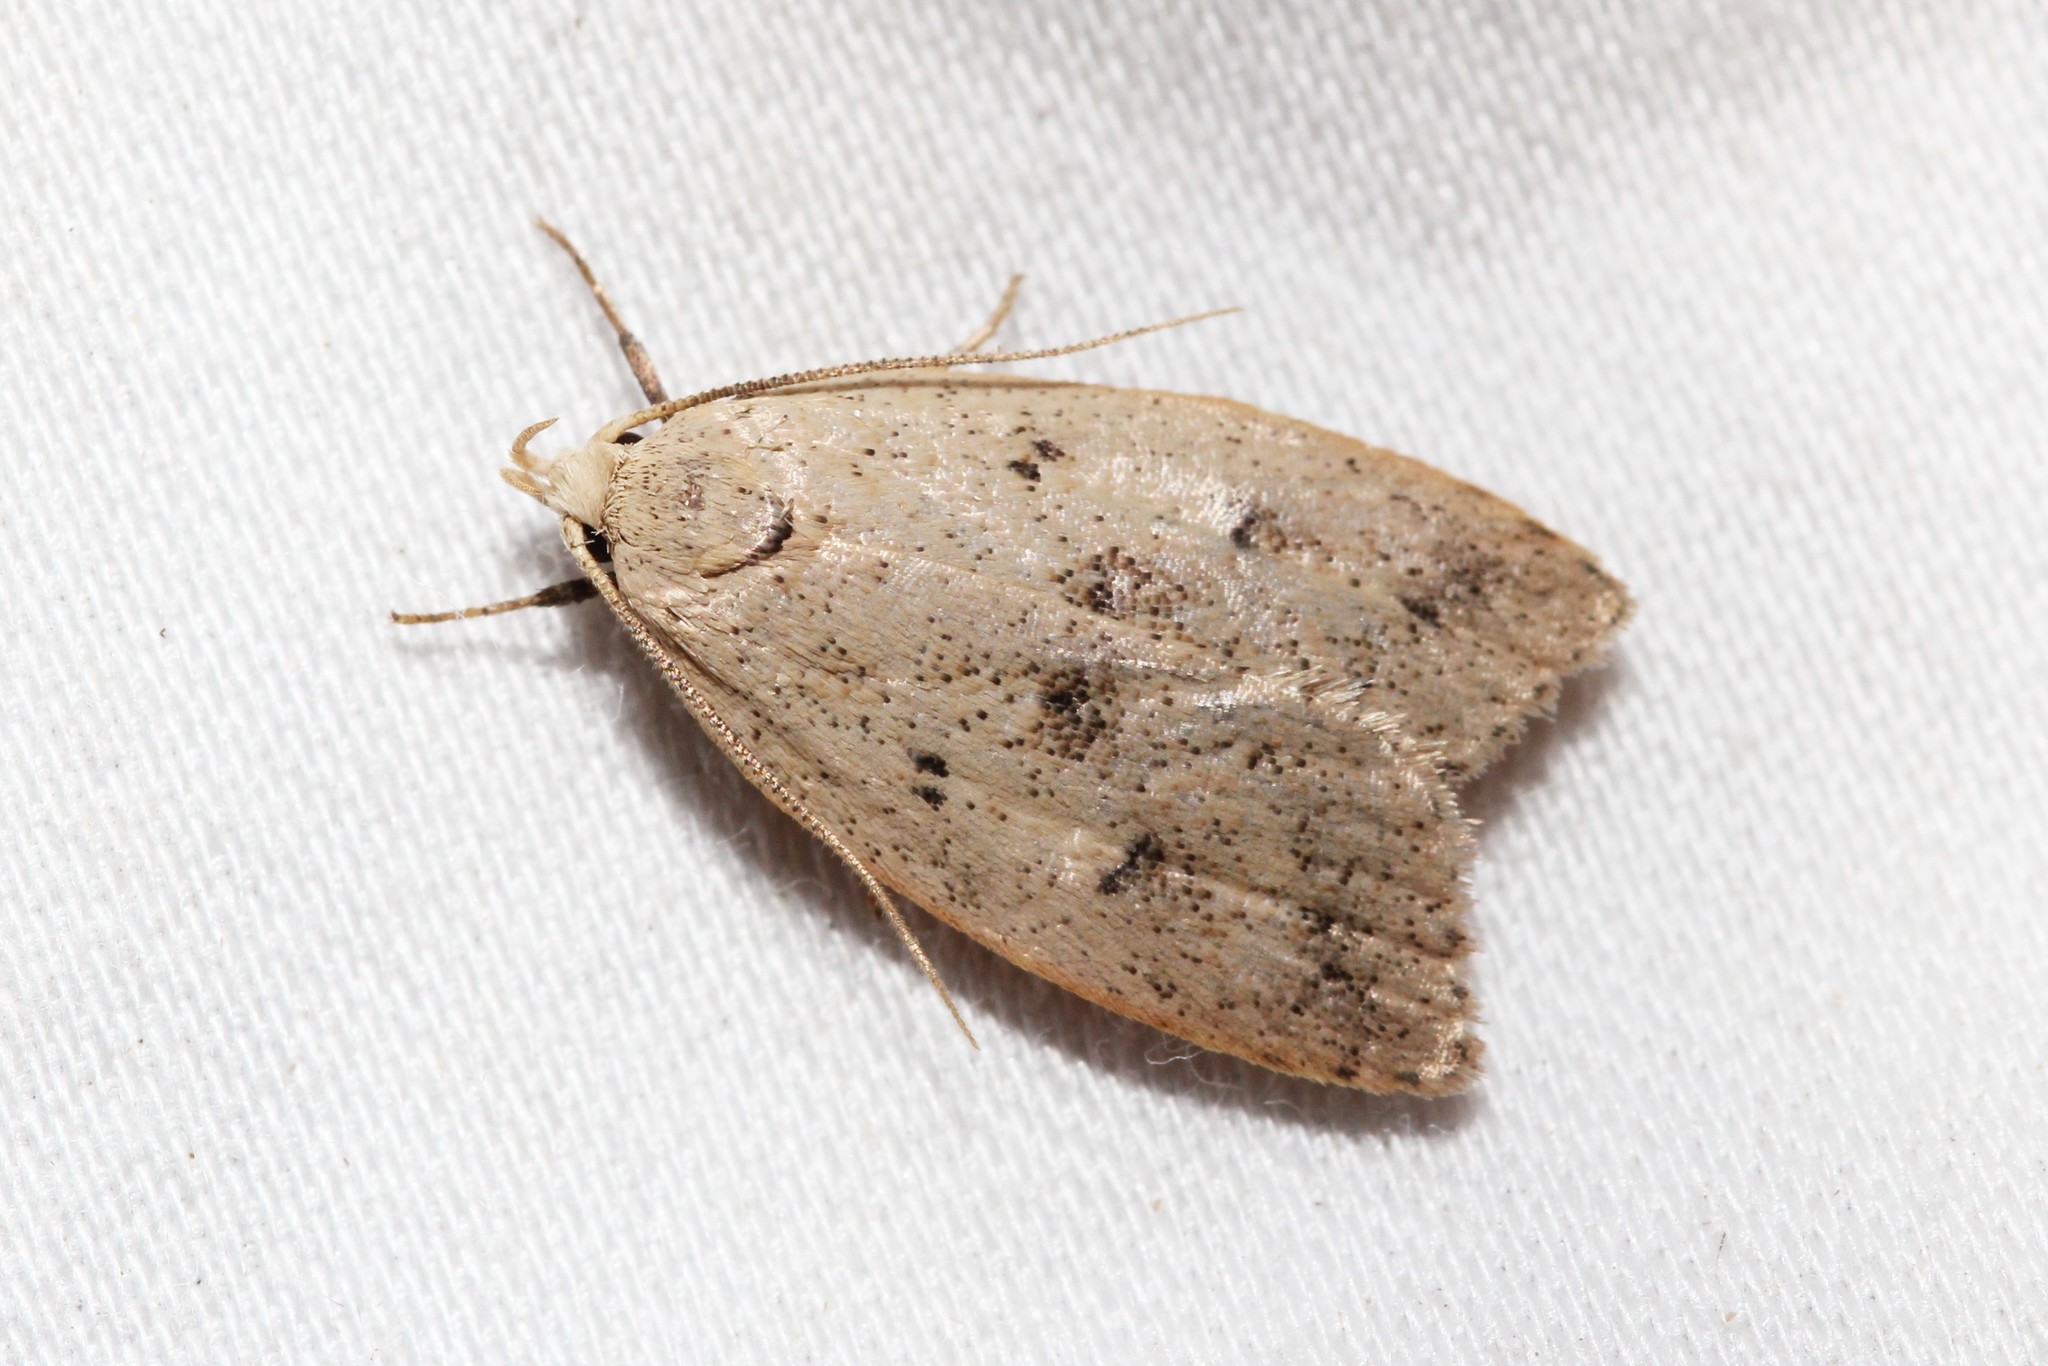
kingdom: Animalia
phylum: Arthropoda
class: Insecta
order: Lepidoptera
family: Peleopodidae
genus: Machimia
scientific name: Machimia tentoriferella
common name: Gold-striped leaftier moth
